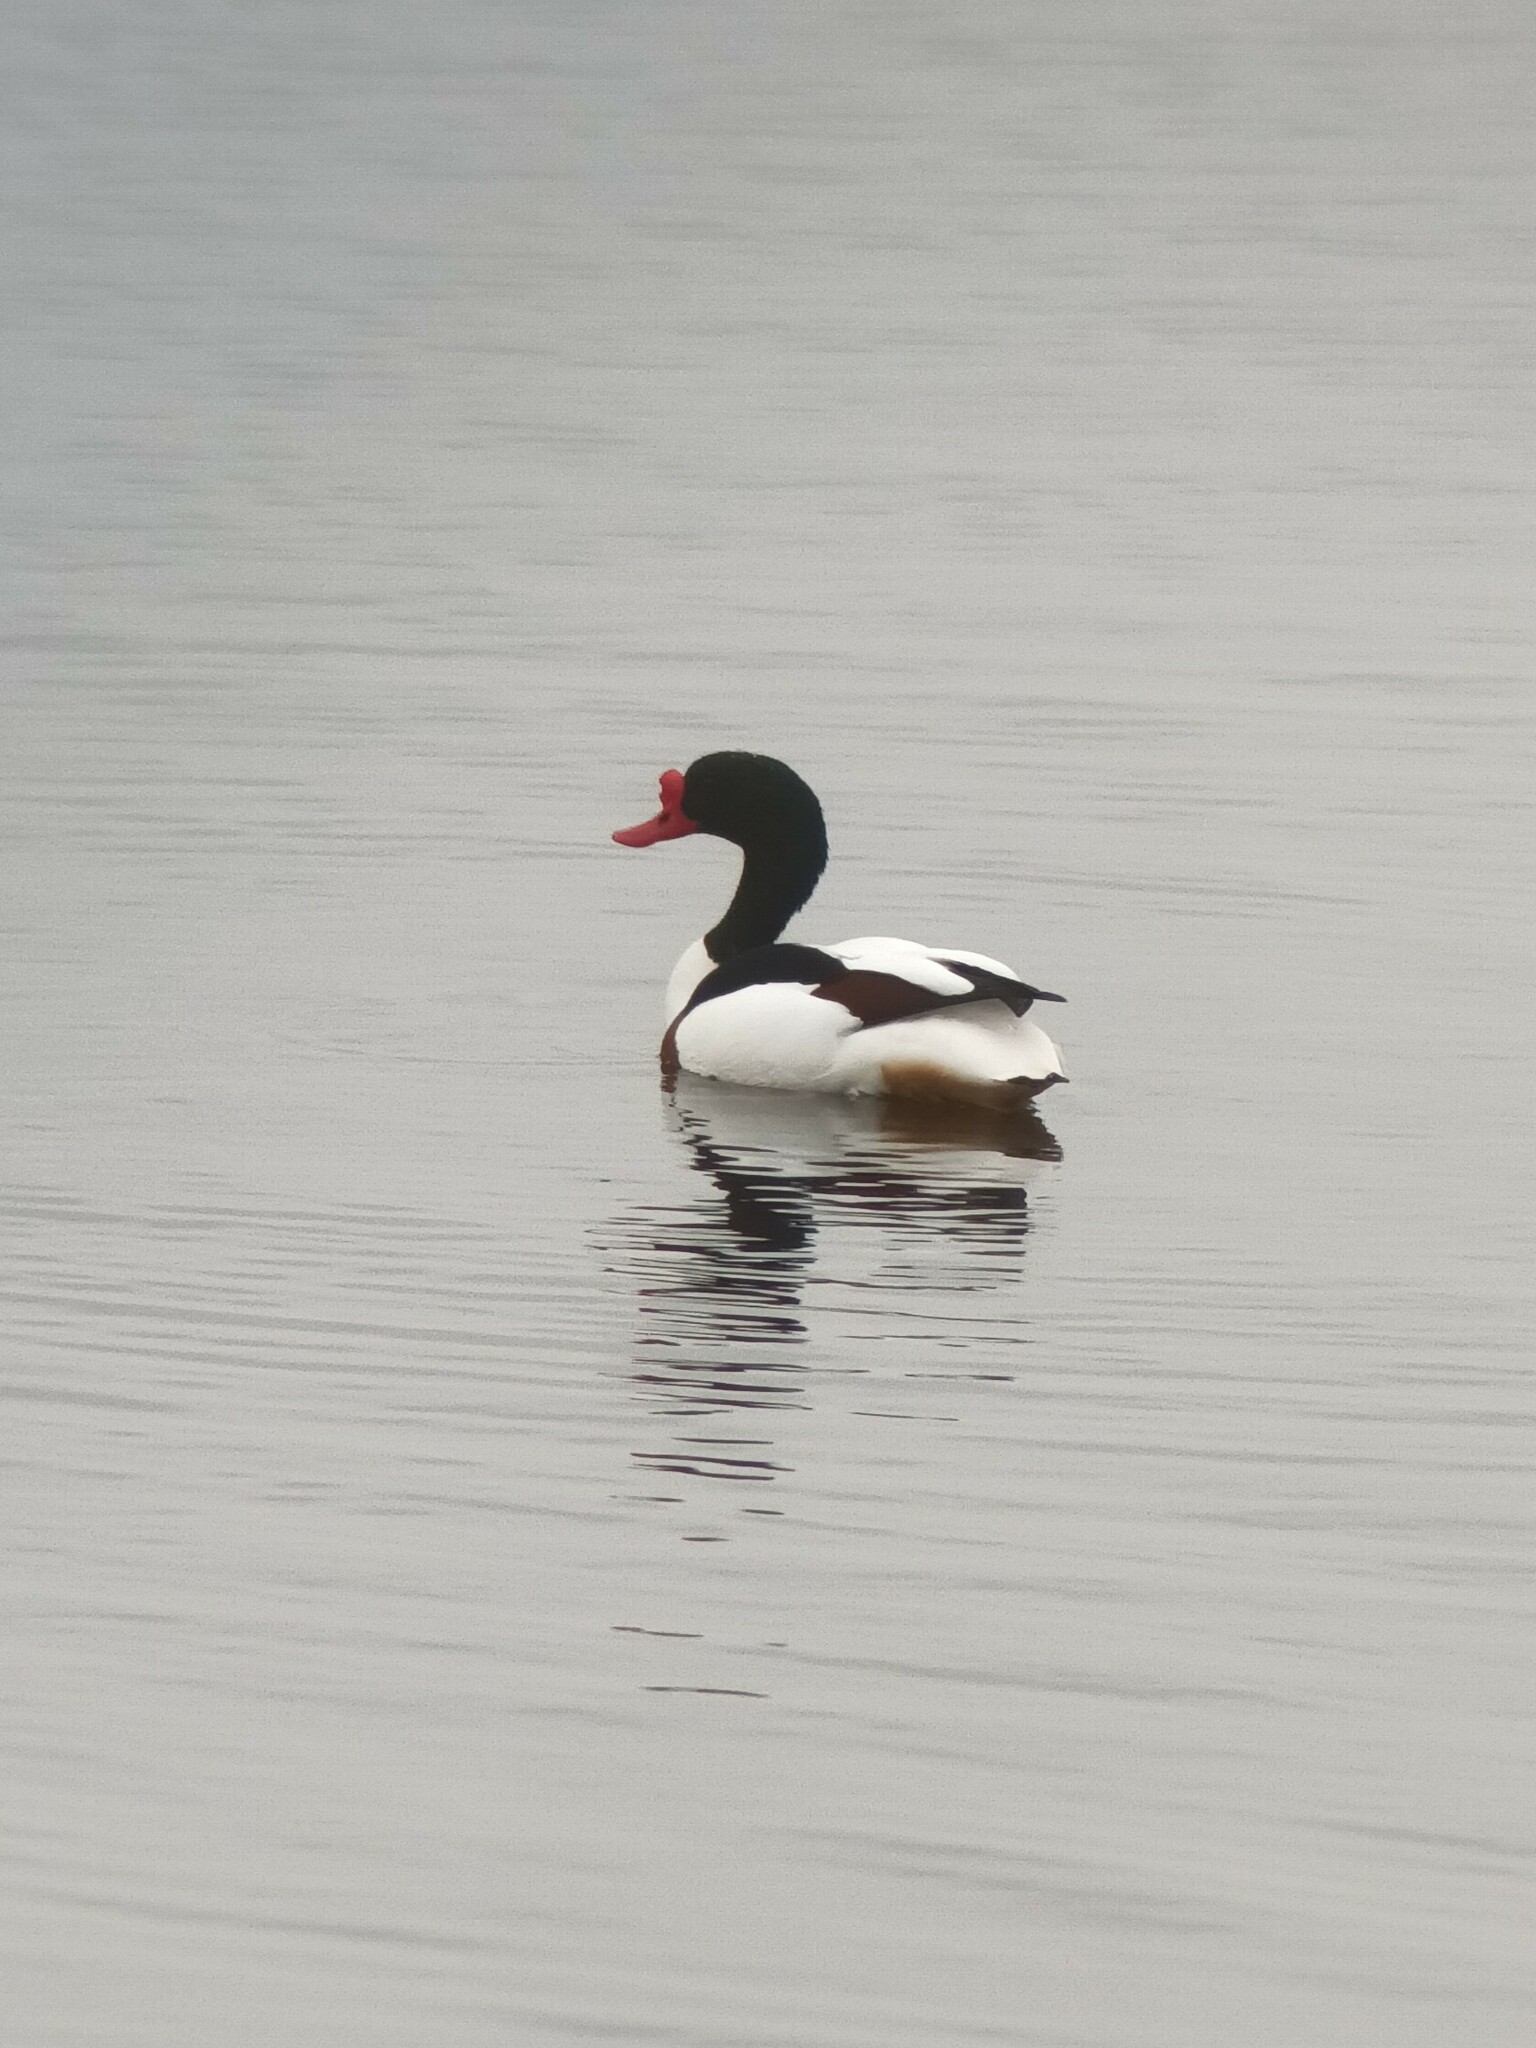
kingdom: Animalia
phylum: Chordata
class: Aves
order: Anseriformes
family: Anatidae
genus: Tadorna
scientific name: Tadorna tadorna
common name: Common shelduck
